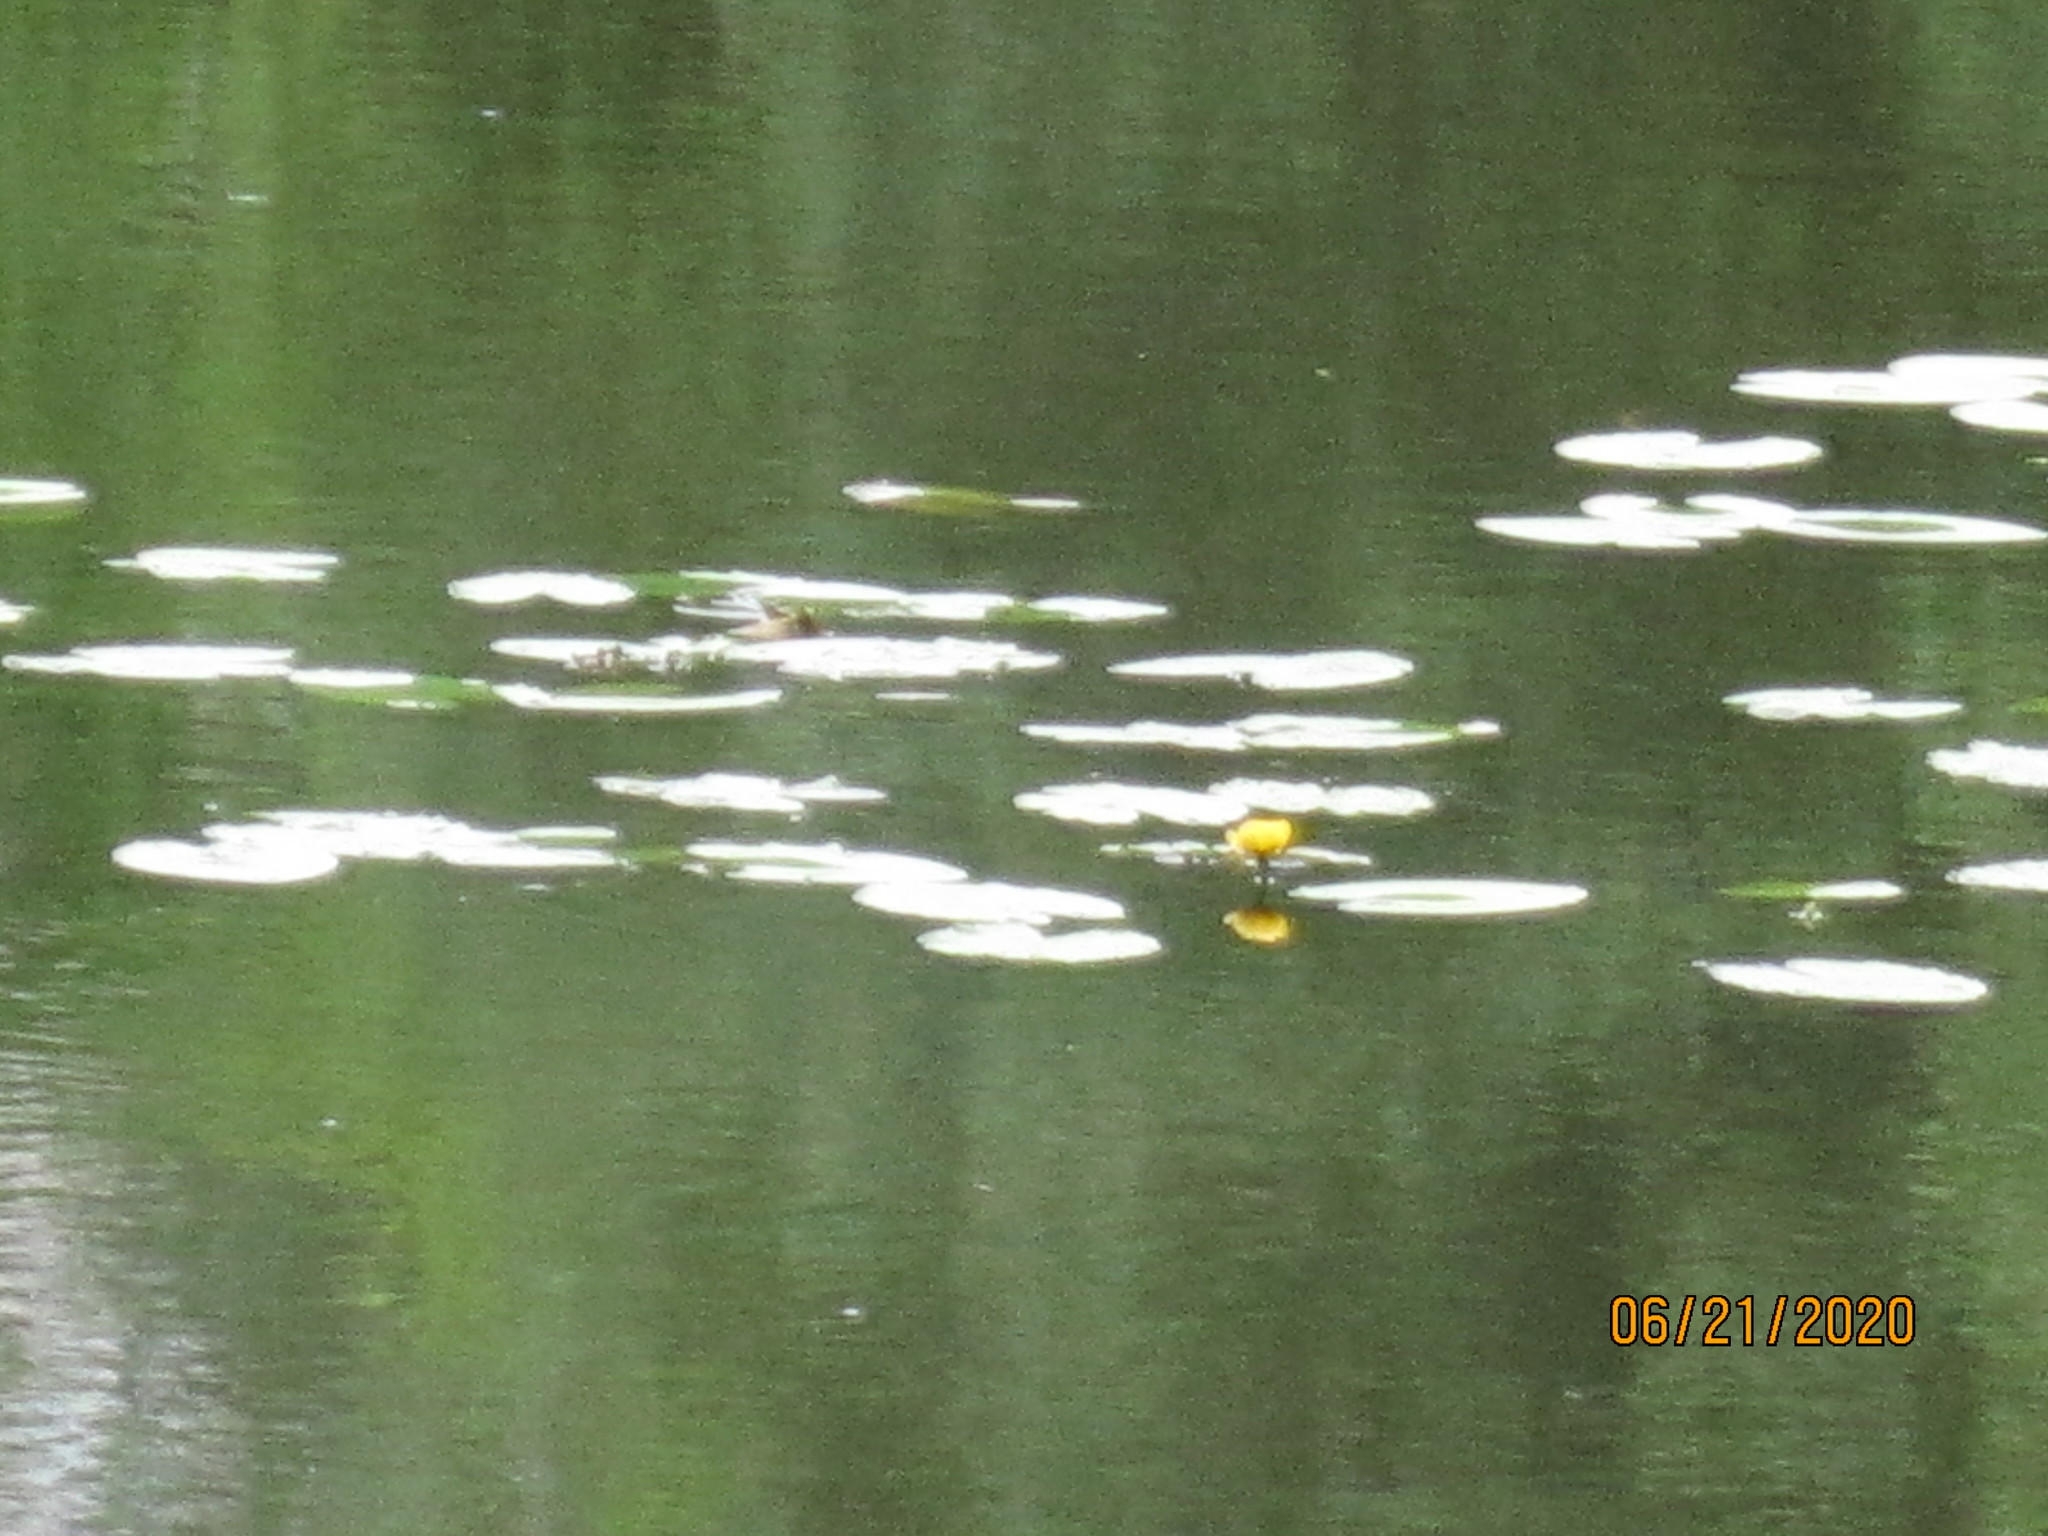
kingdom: Plantae
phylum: Tracheophyta
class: Magnoliopsida
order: Nymphaeales
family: Nymphaeaceae
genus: Nuphar
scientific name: Nuphar lutea
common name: Yellow water-lily
